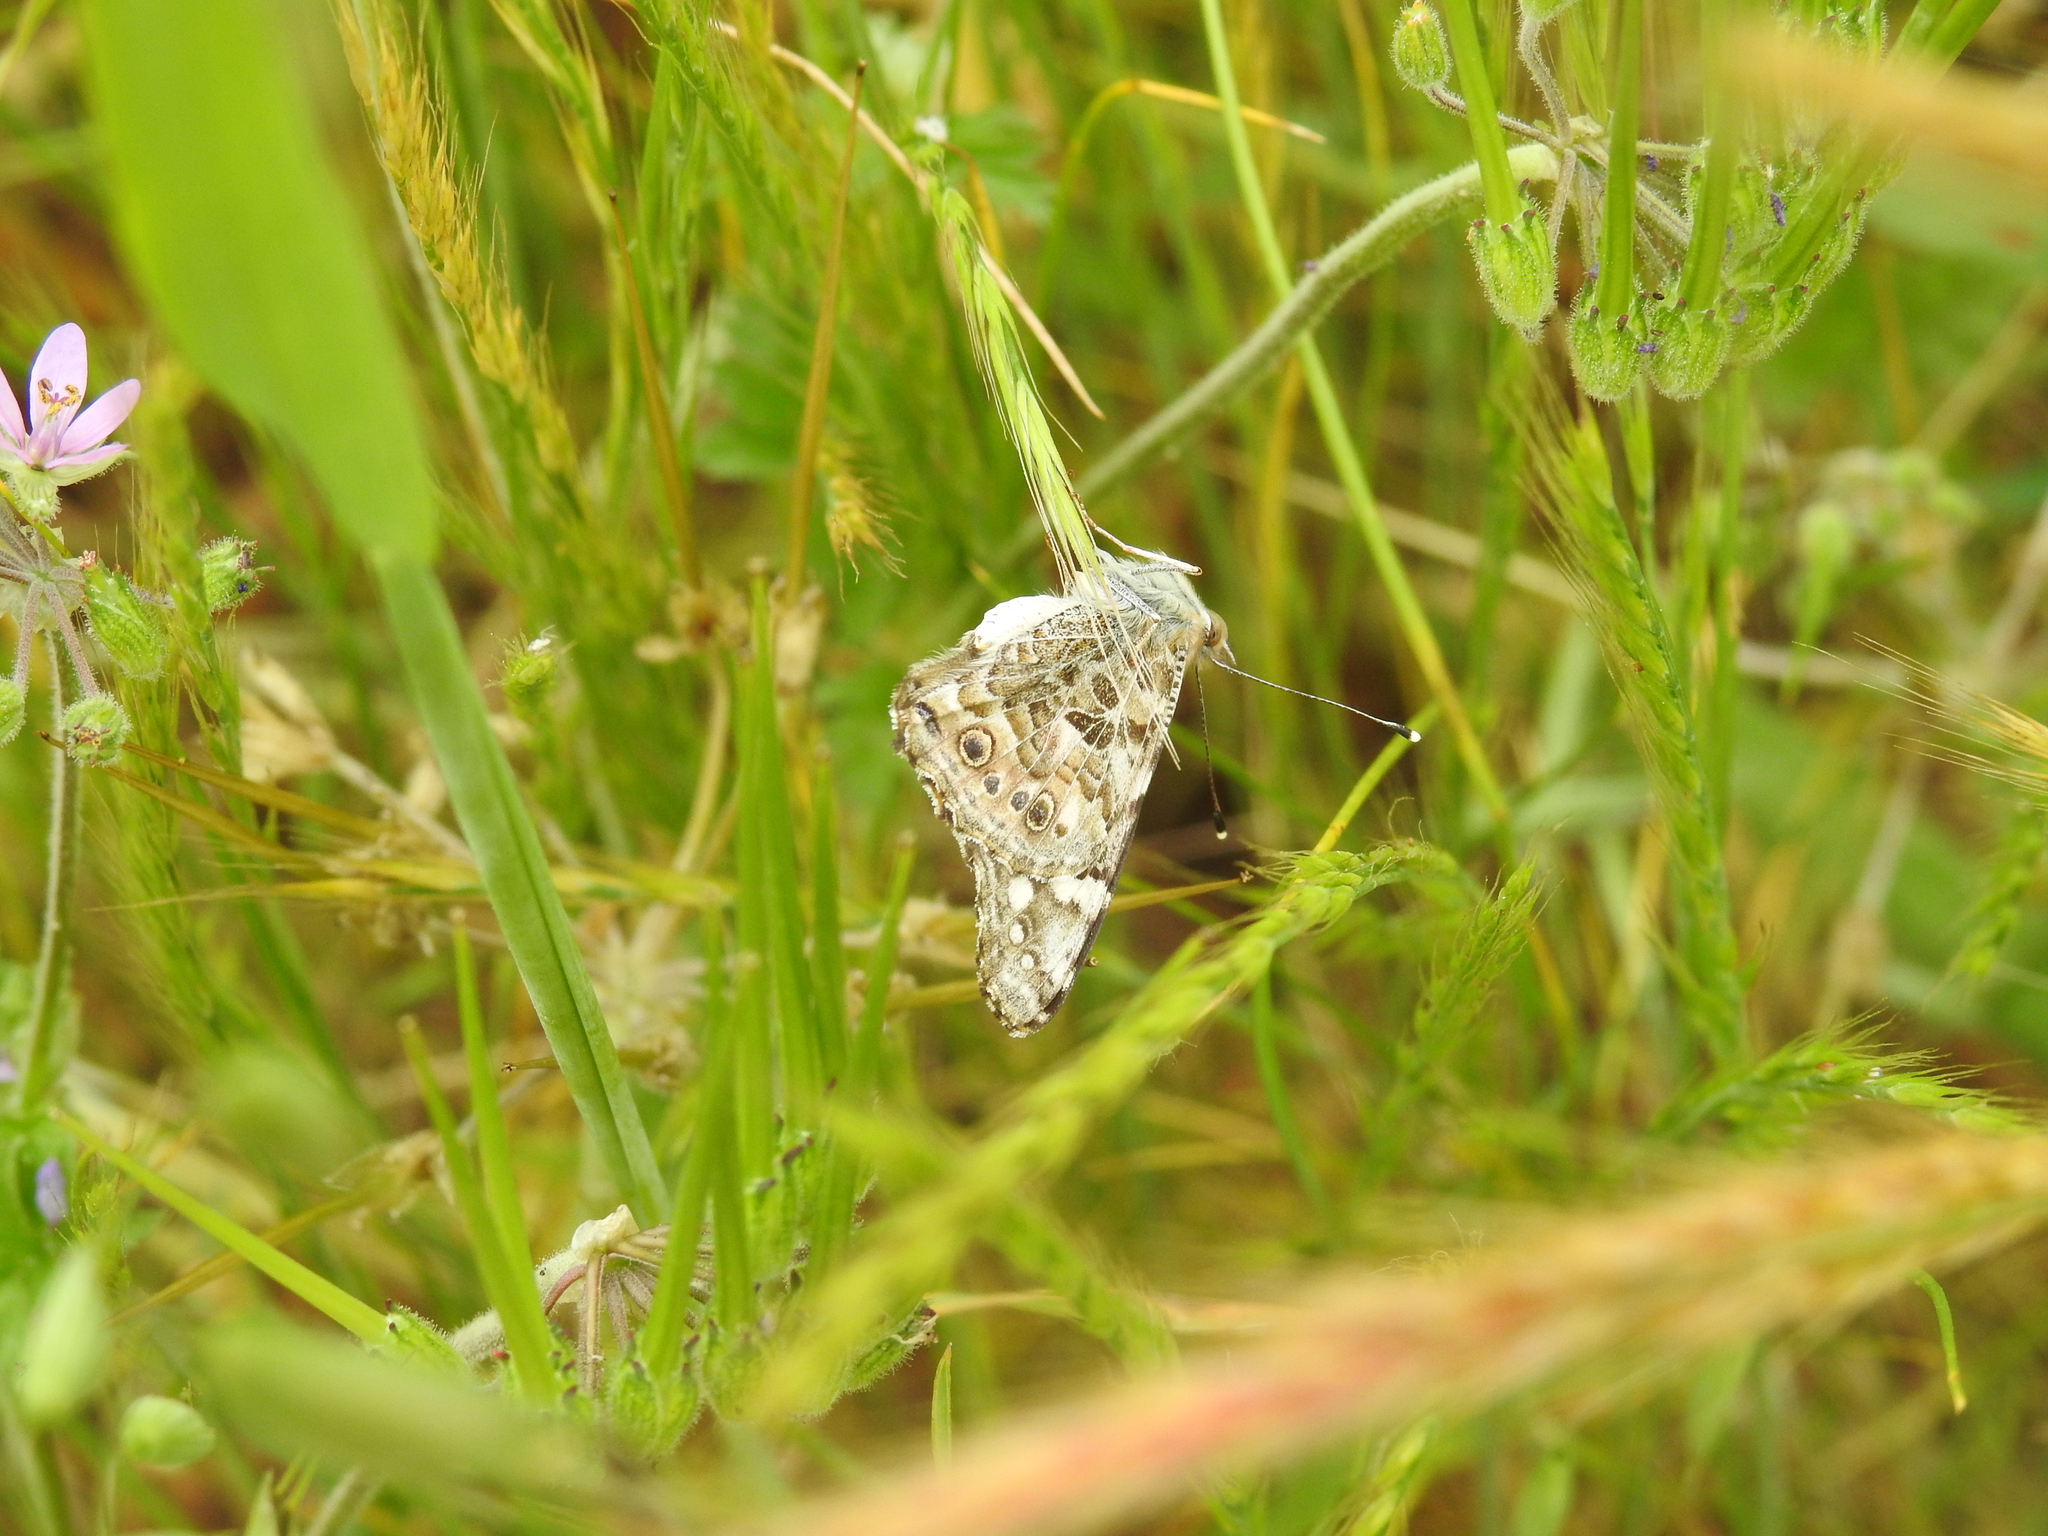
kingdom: Animalia
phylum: Arthropoda
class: Insecta
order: Lepidoptera
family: Nymphalidae
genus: Vanessa
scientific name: Vanessa cardui
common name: Painted lady
